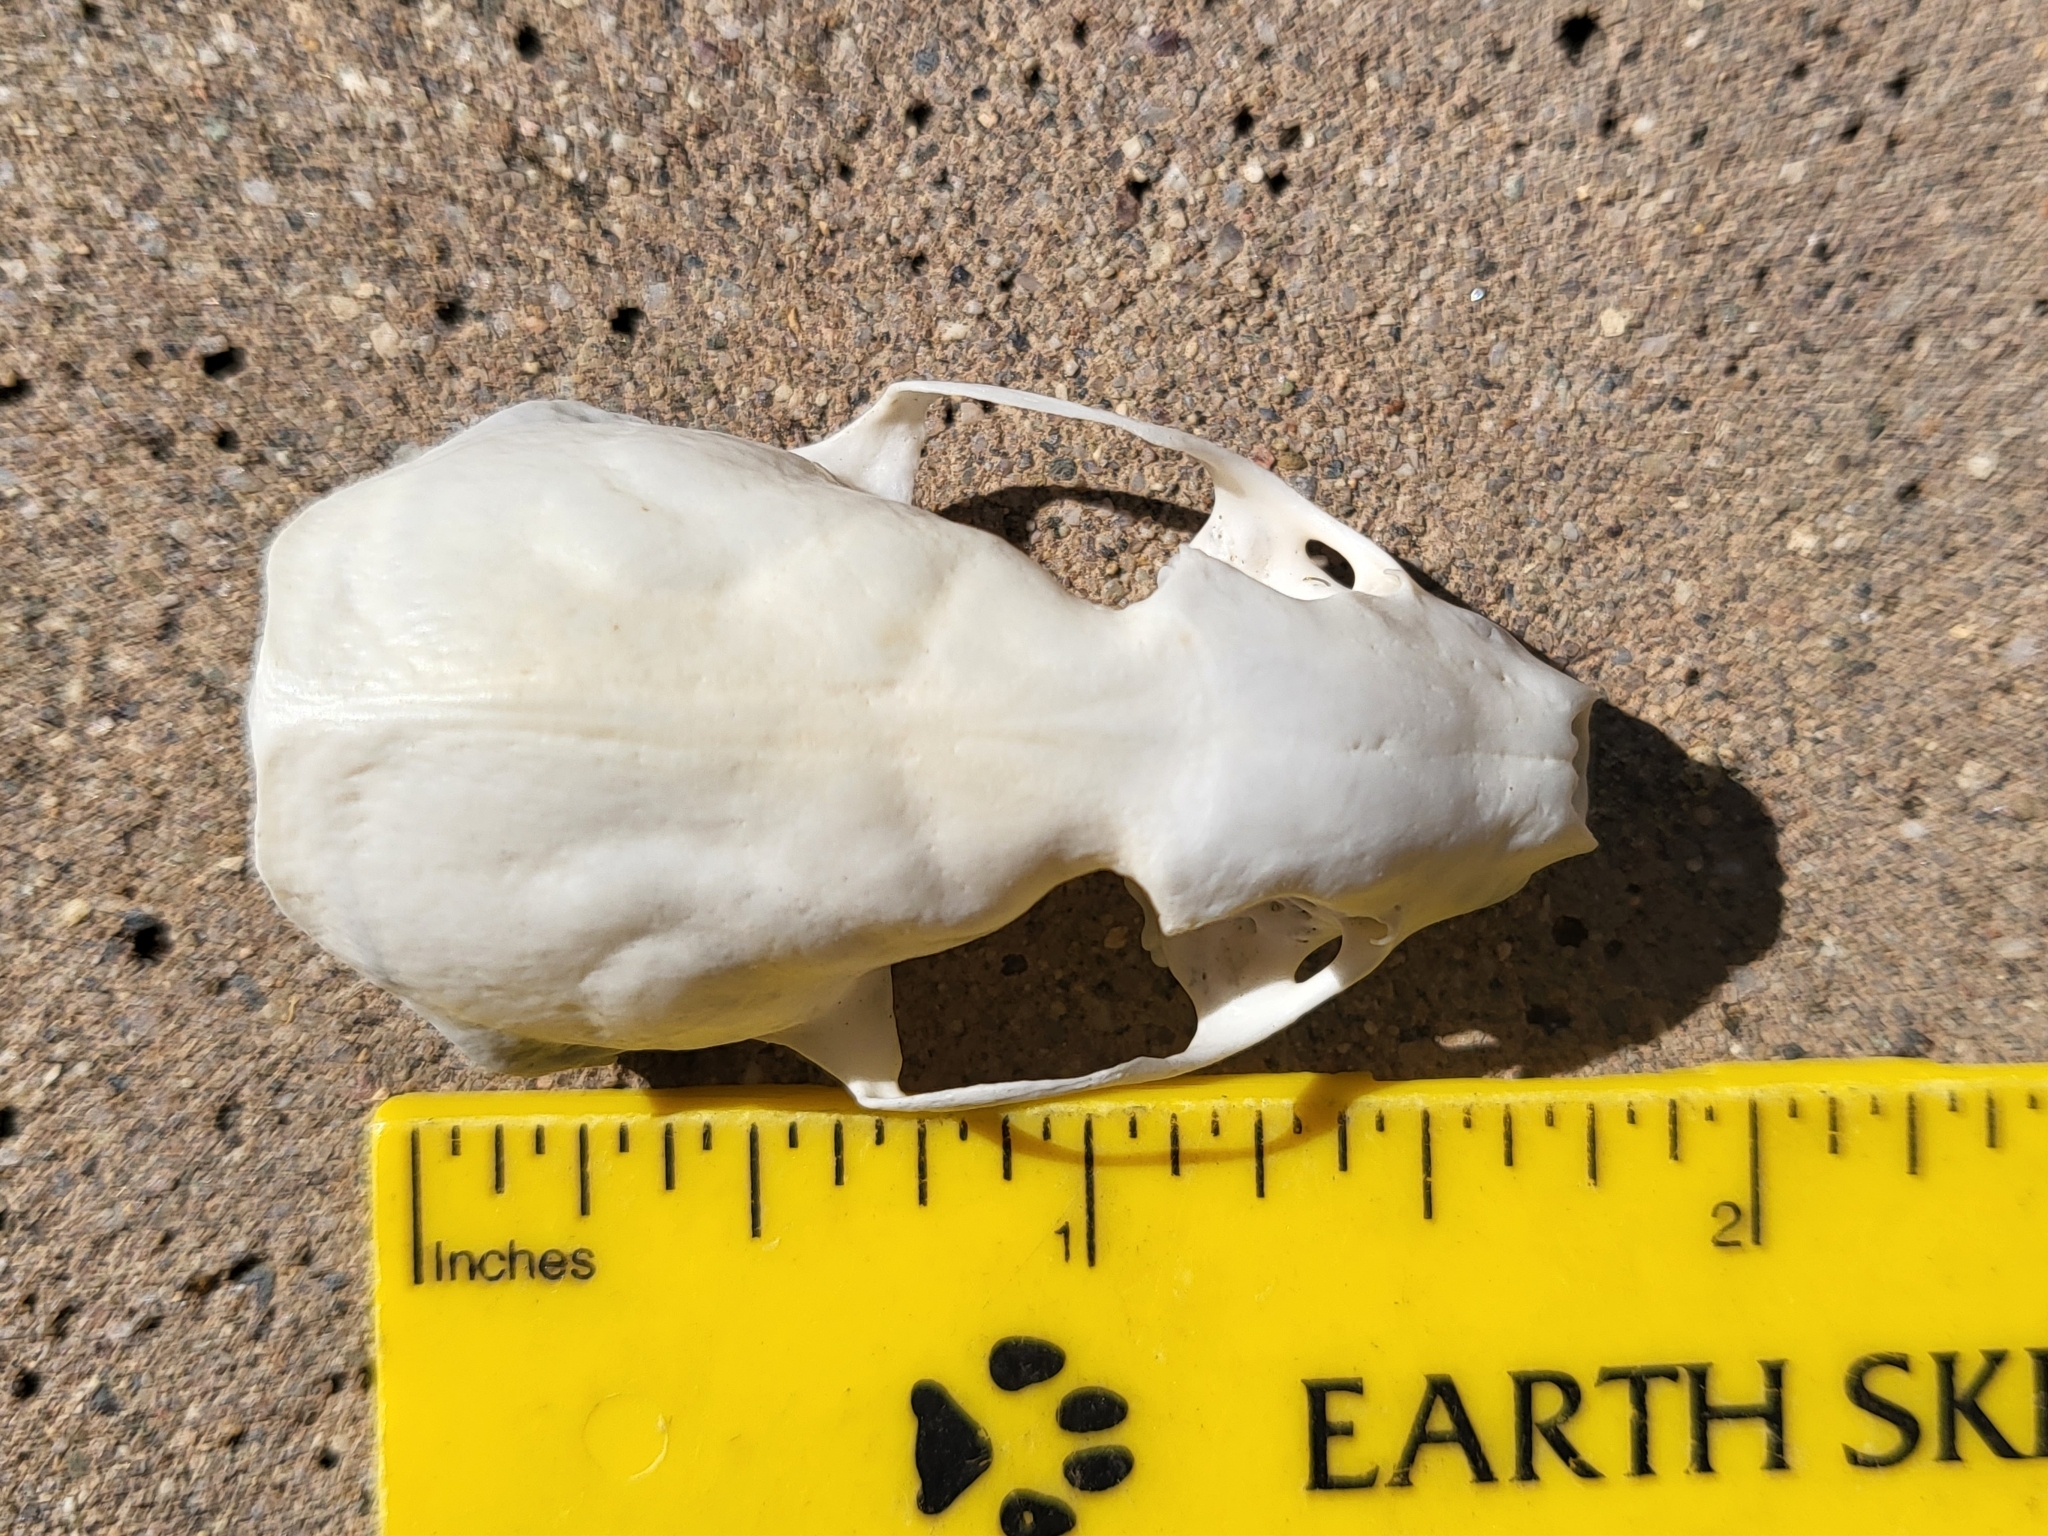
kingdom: Animalia
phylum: Chordata
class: Mammalia
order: Carnivora
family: Mustelidae
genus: Mustela
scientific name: Mustela
